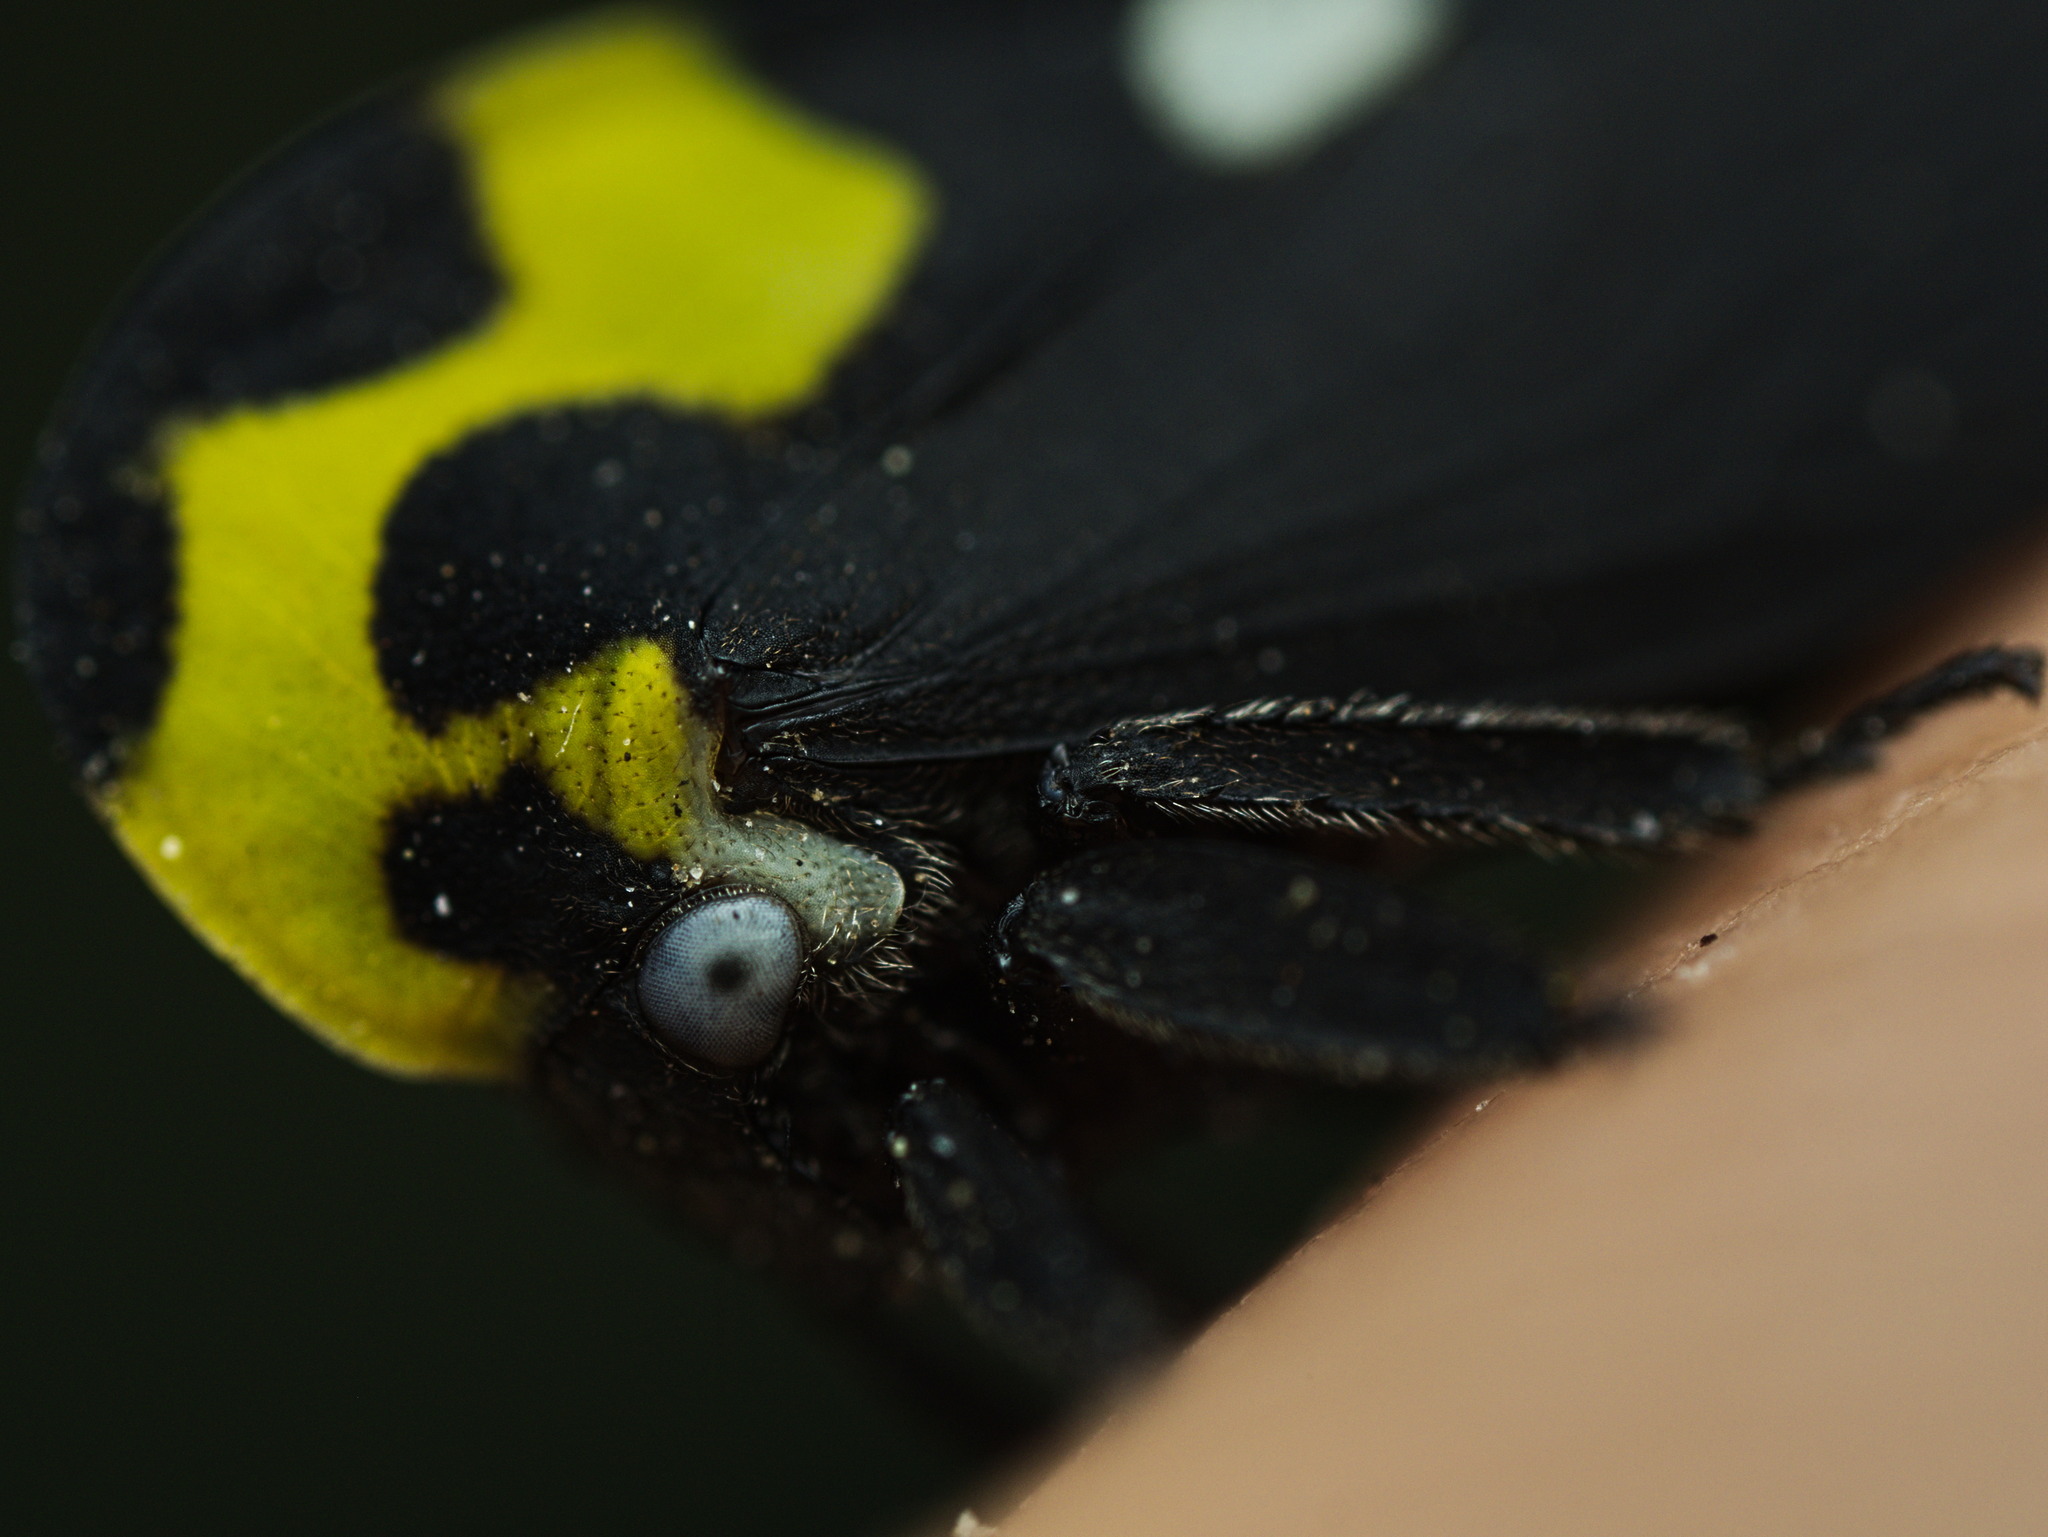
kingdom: Animalia
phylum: Arthropoda
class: Insecta
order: Hemiptera
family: Membracidae
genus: Membracis
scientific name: Membracis mexicana
